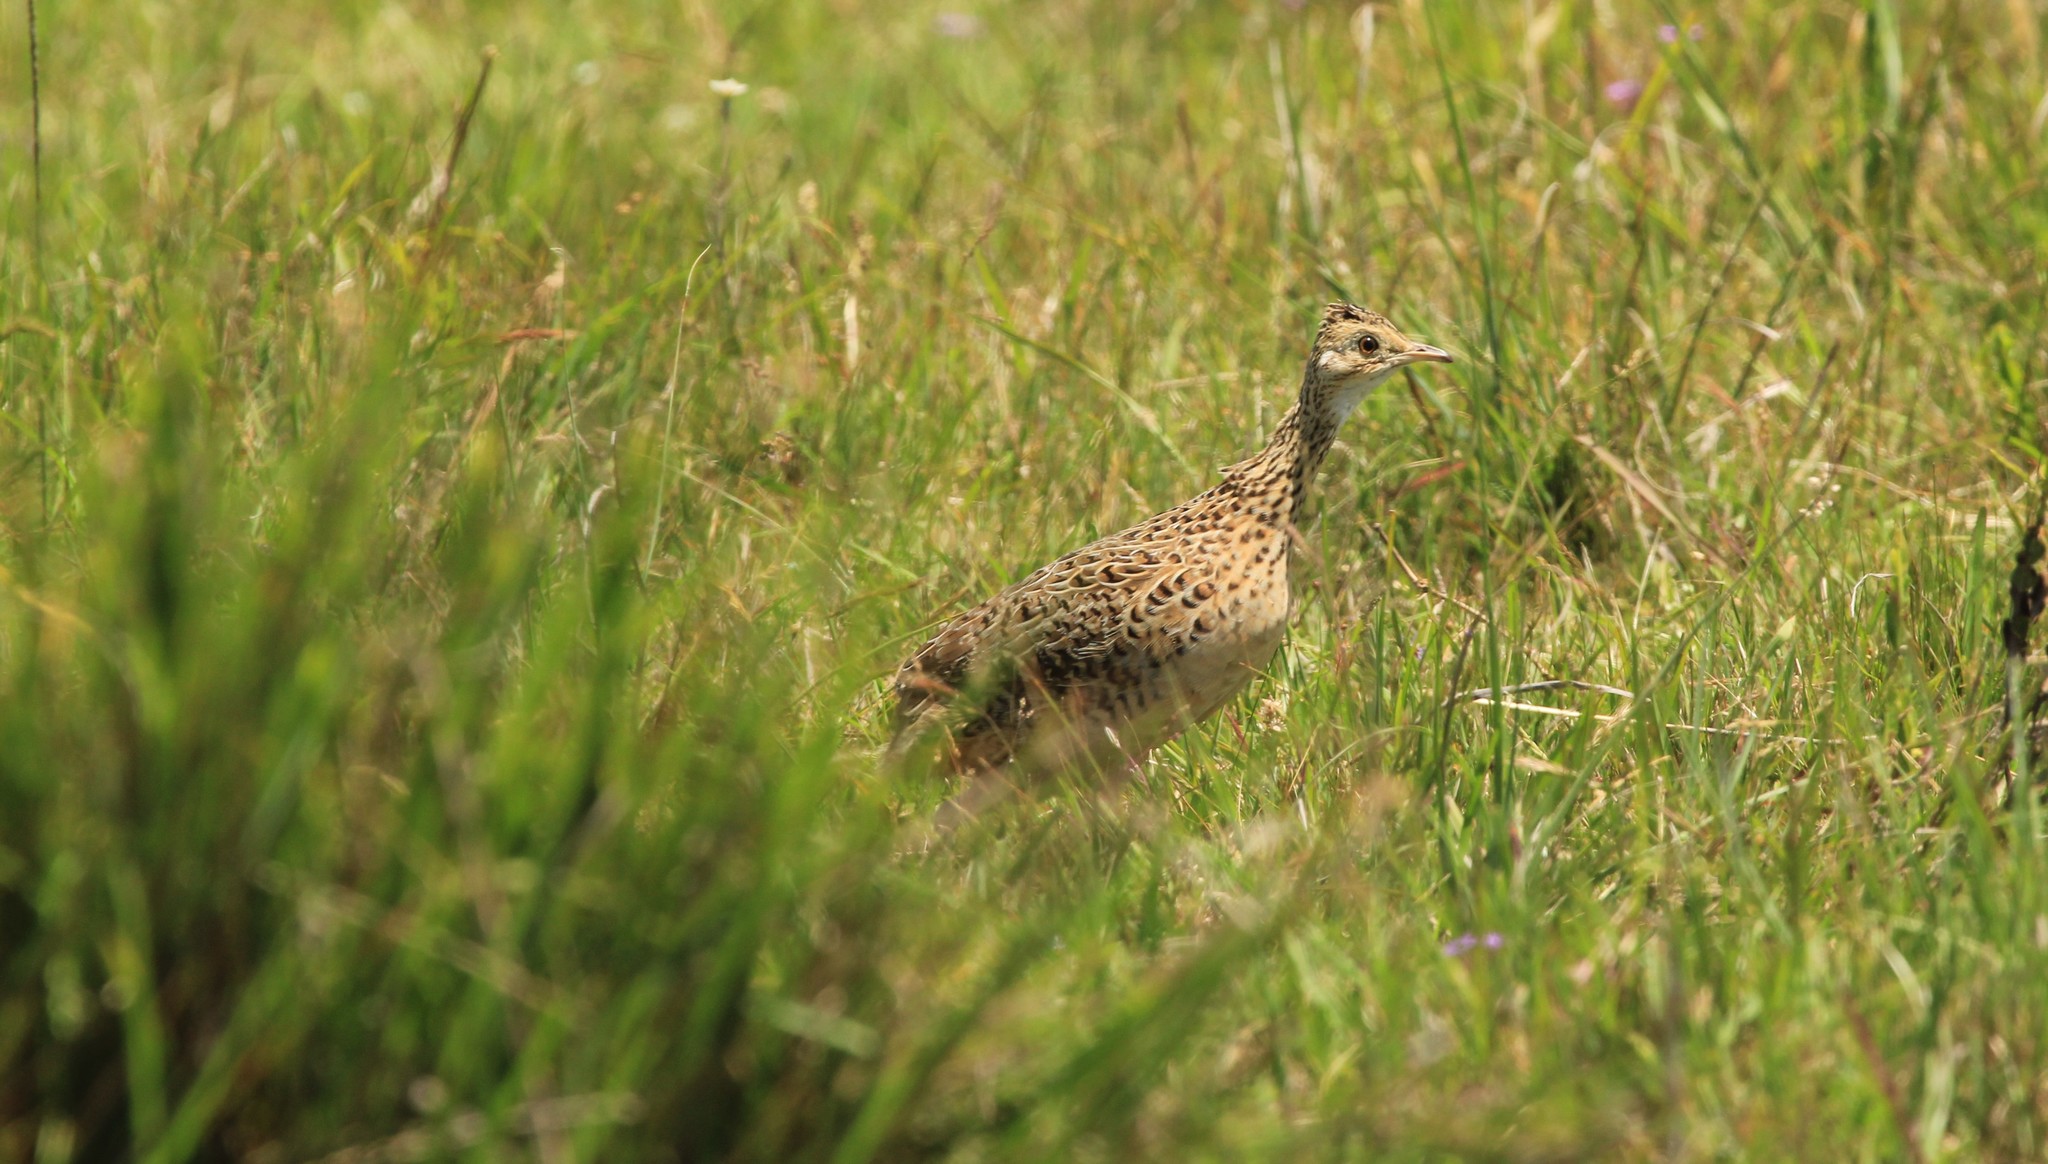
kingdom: Animalia
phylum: Chordata
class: Aves
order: Tinamiformes
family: Tinamidae
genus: Nothura
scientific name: Nothura maculosa
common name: Spotted nothura
